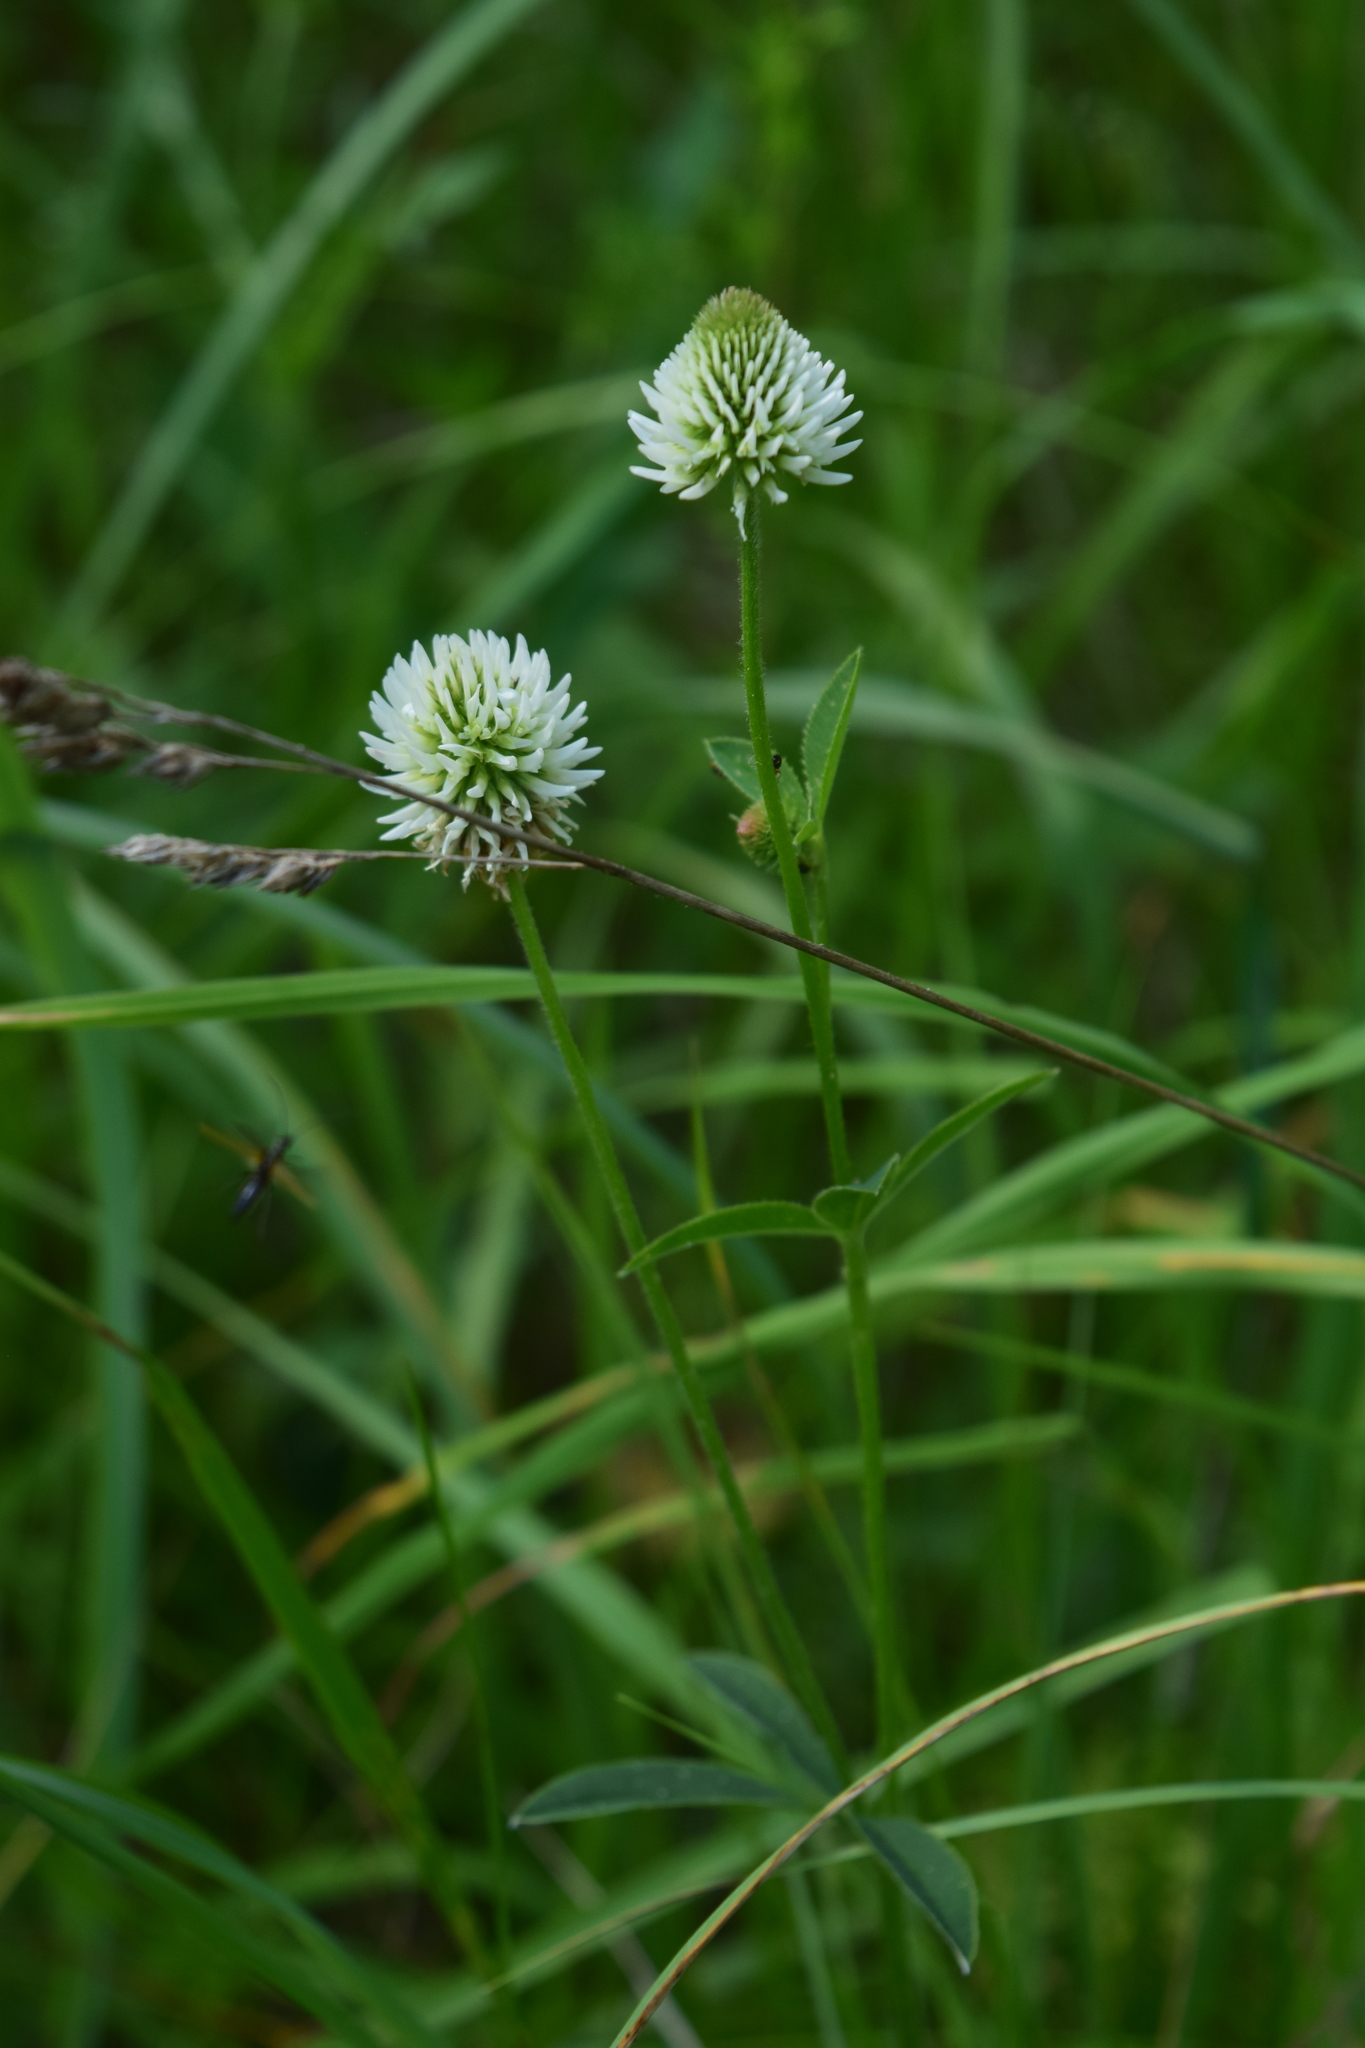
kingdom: Plantae
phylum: Tracheophyta
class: Magnoliopsida
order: Fabales
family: Fabaceae
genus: Trifolium
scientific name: Trifolium montanum
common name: Mountain clover
